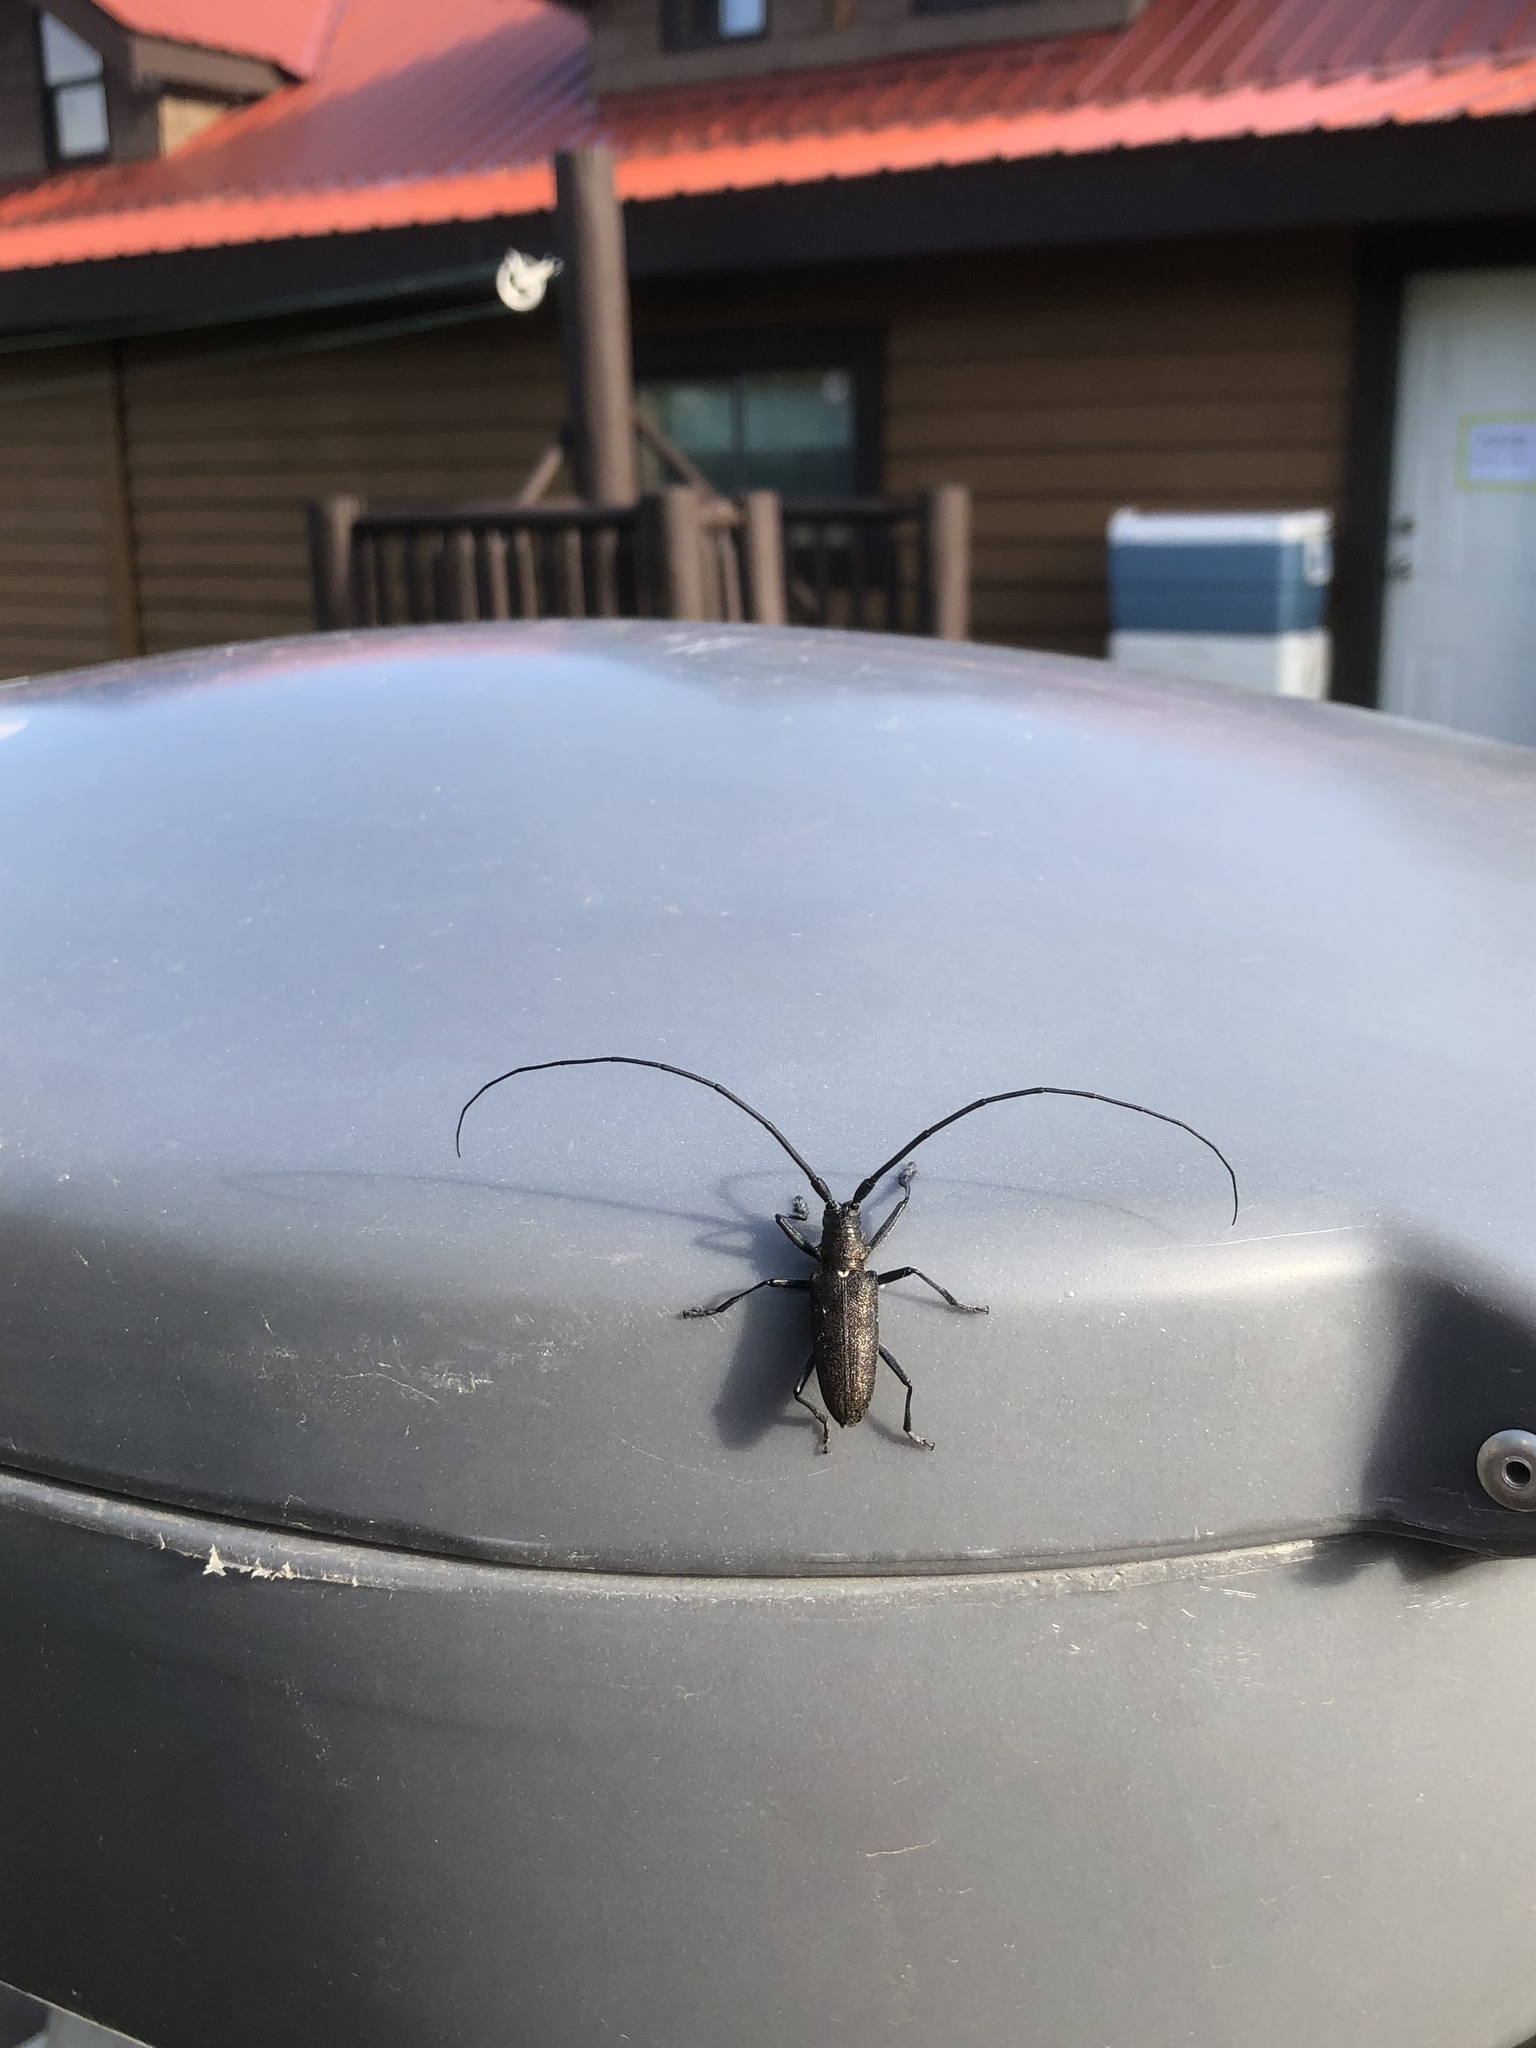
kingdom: Animalia
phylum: Arthropoda
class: Insecta
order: Coleoptera
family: Cerambycidae
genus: Monochamus
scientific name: Monochamus scutellatus
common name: White-spotted sawyer beetle
